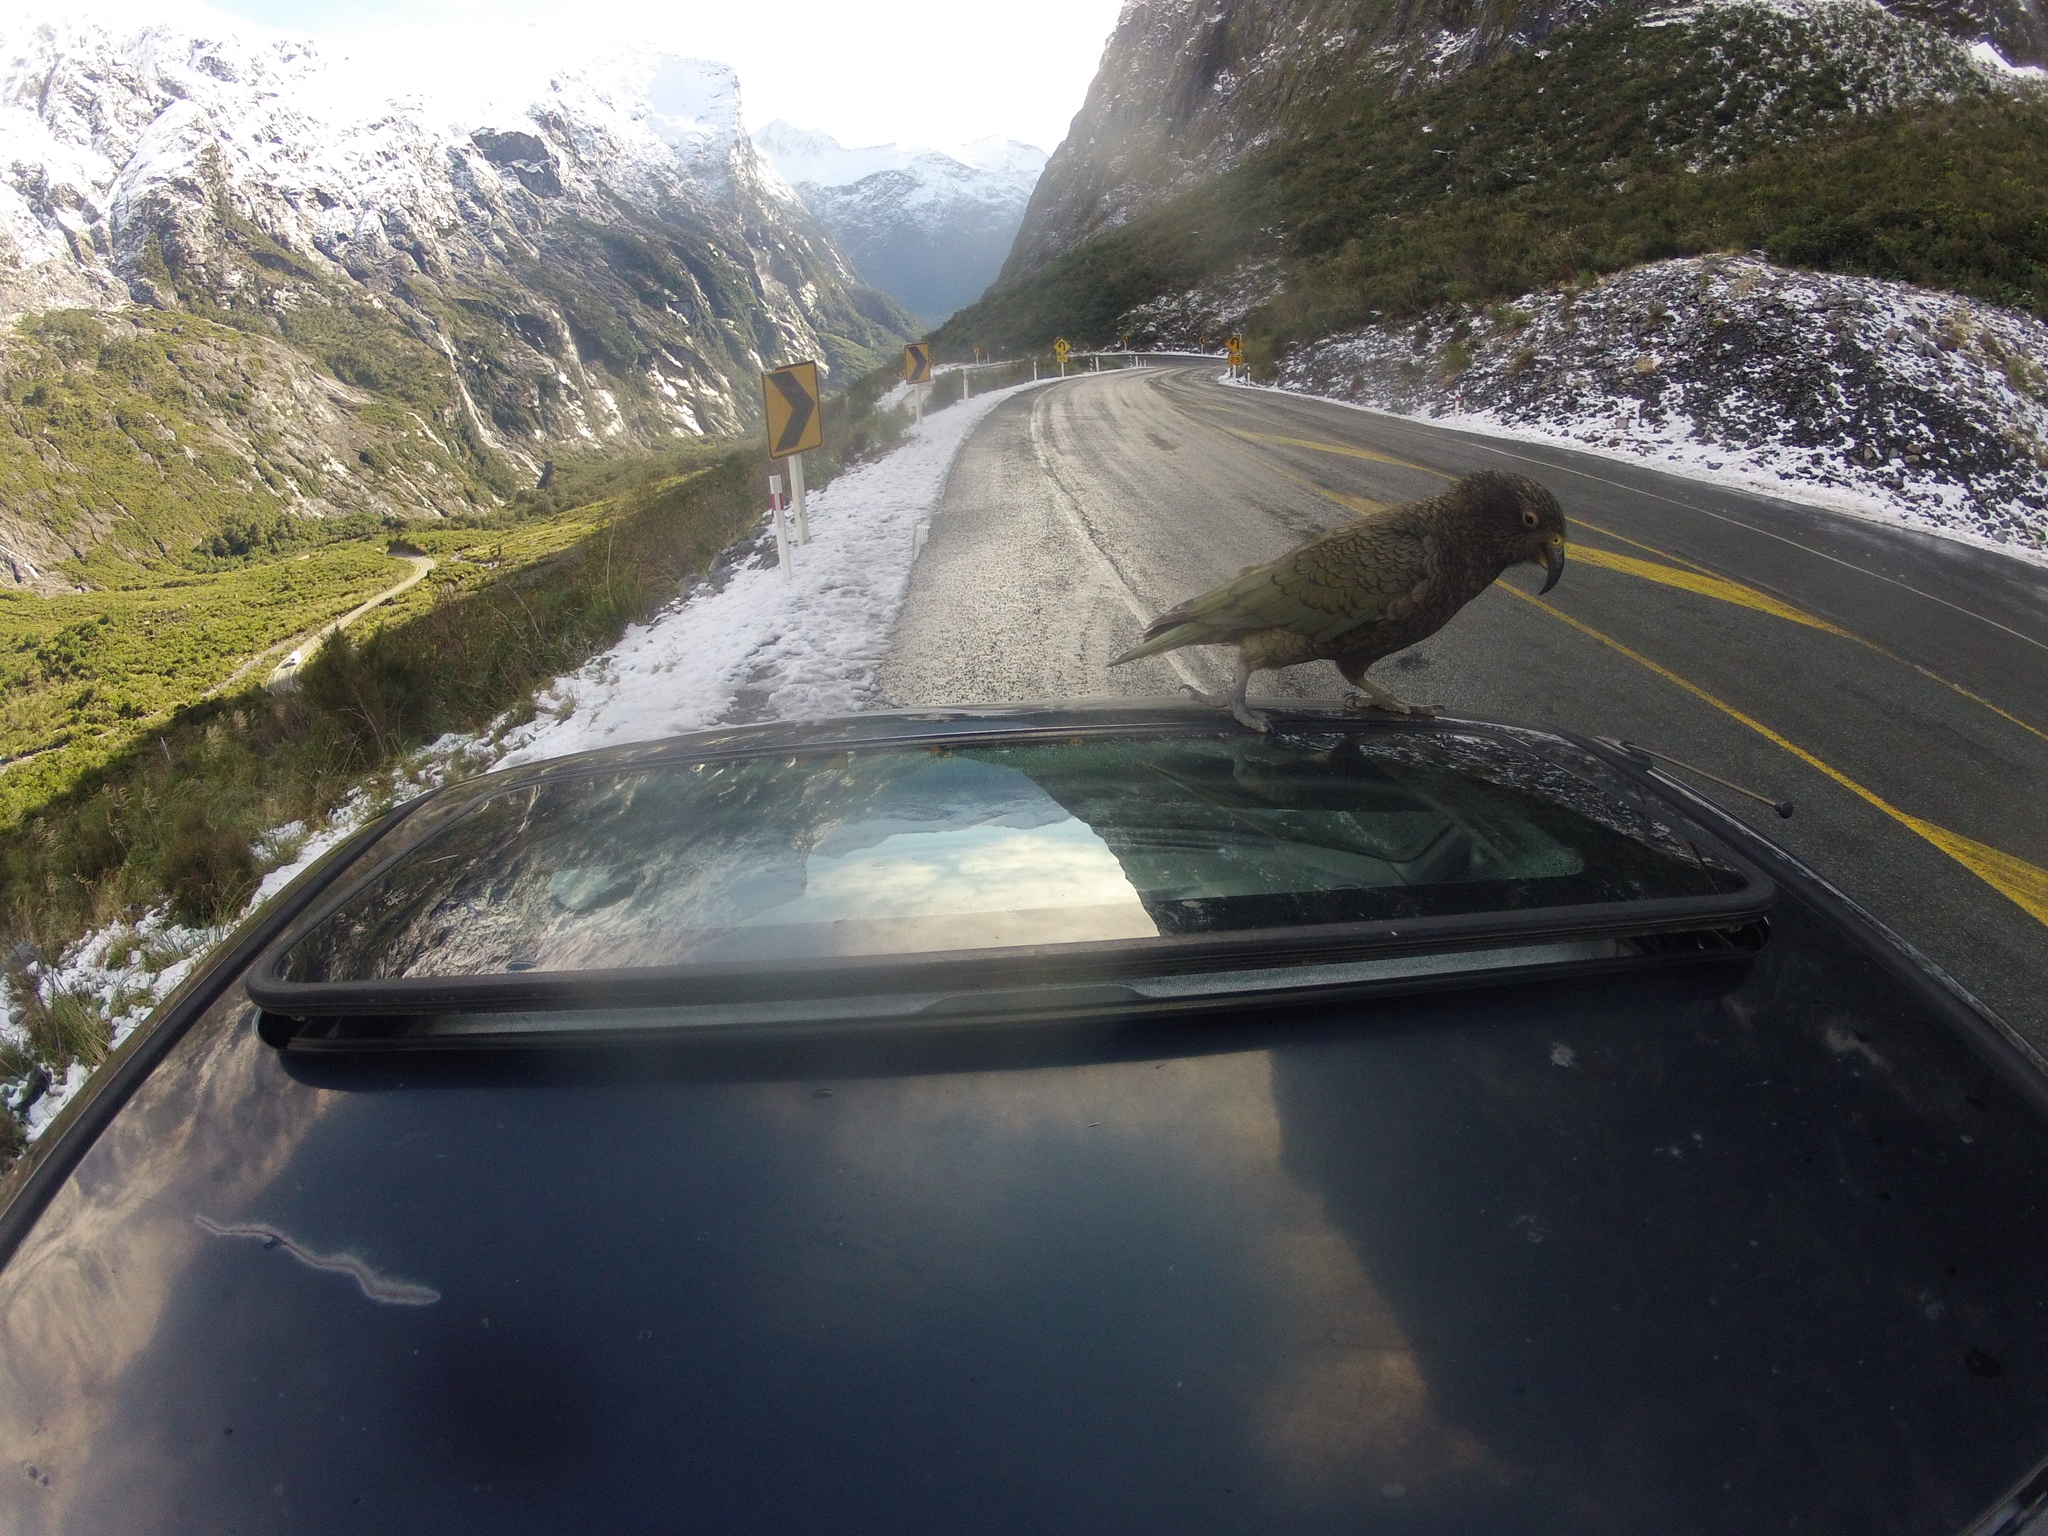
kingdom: Animalia
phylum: Chordata
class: Aves
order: Psittaciformes
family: Psittacidae
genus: Nestor
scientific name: Nestor notabilis
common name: Kea
